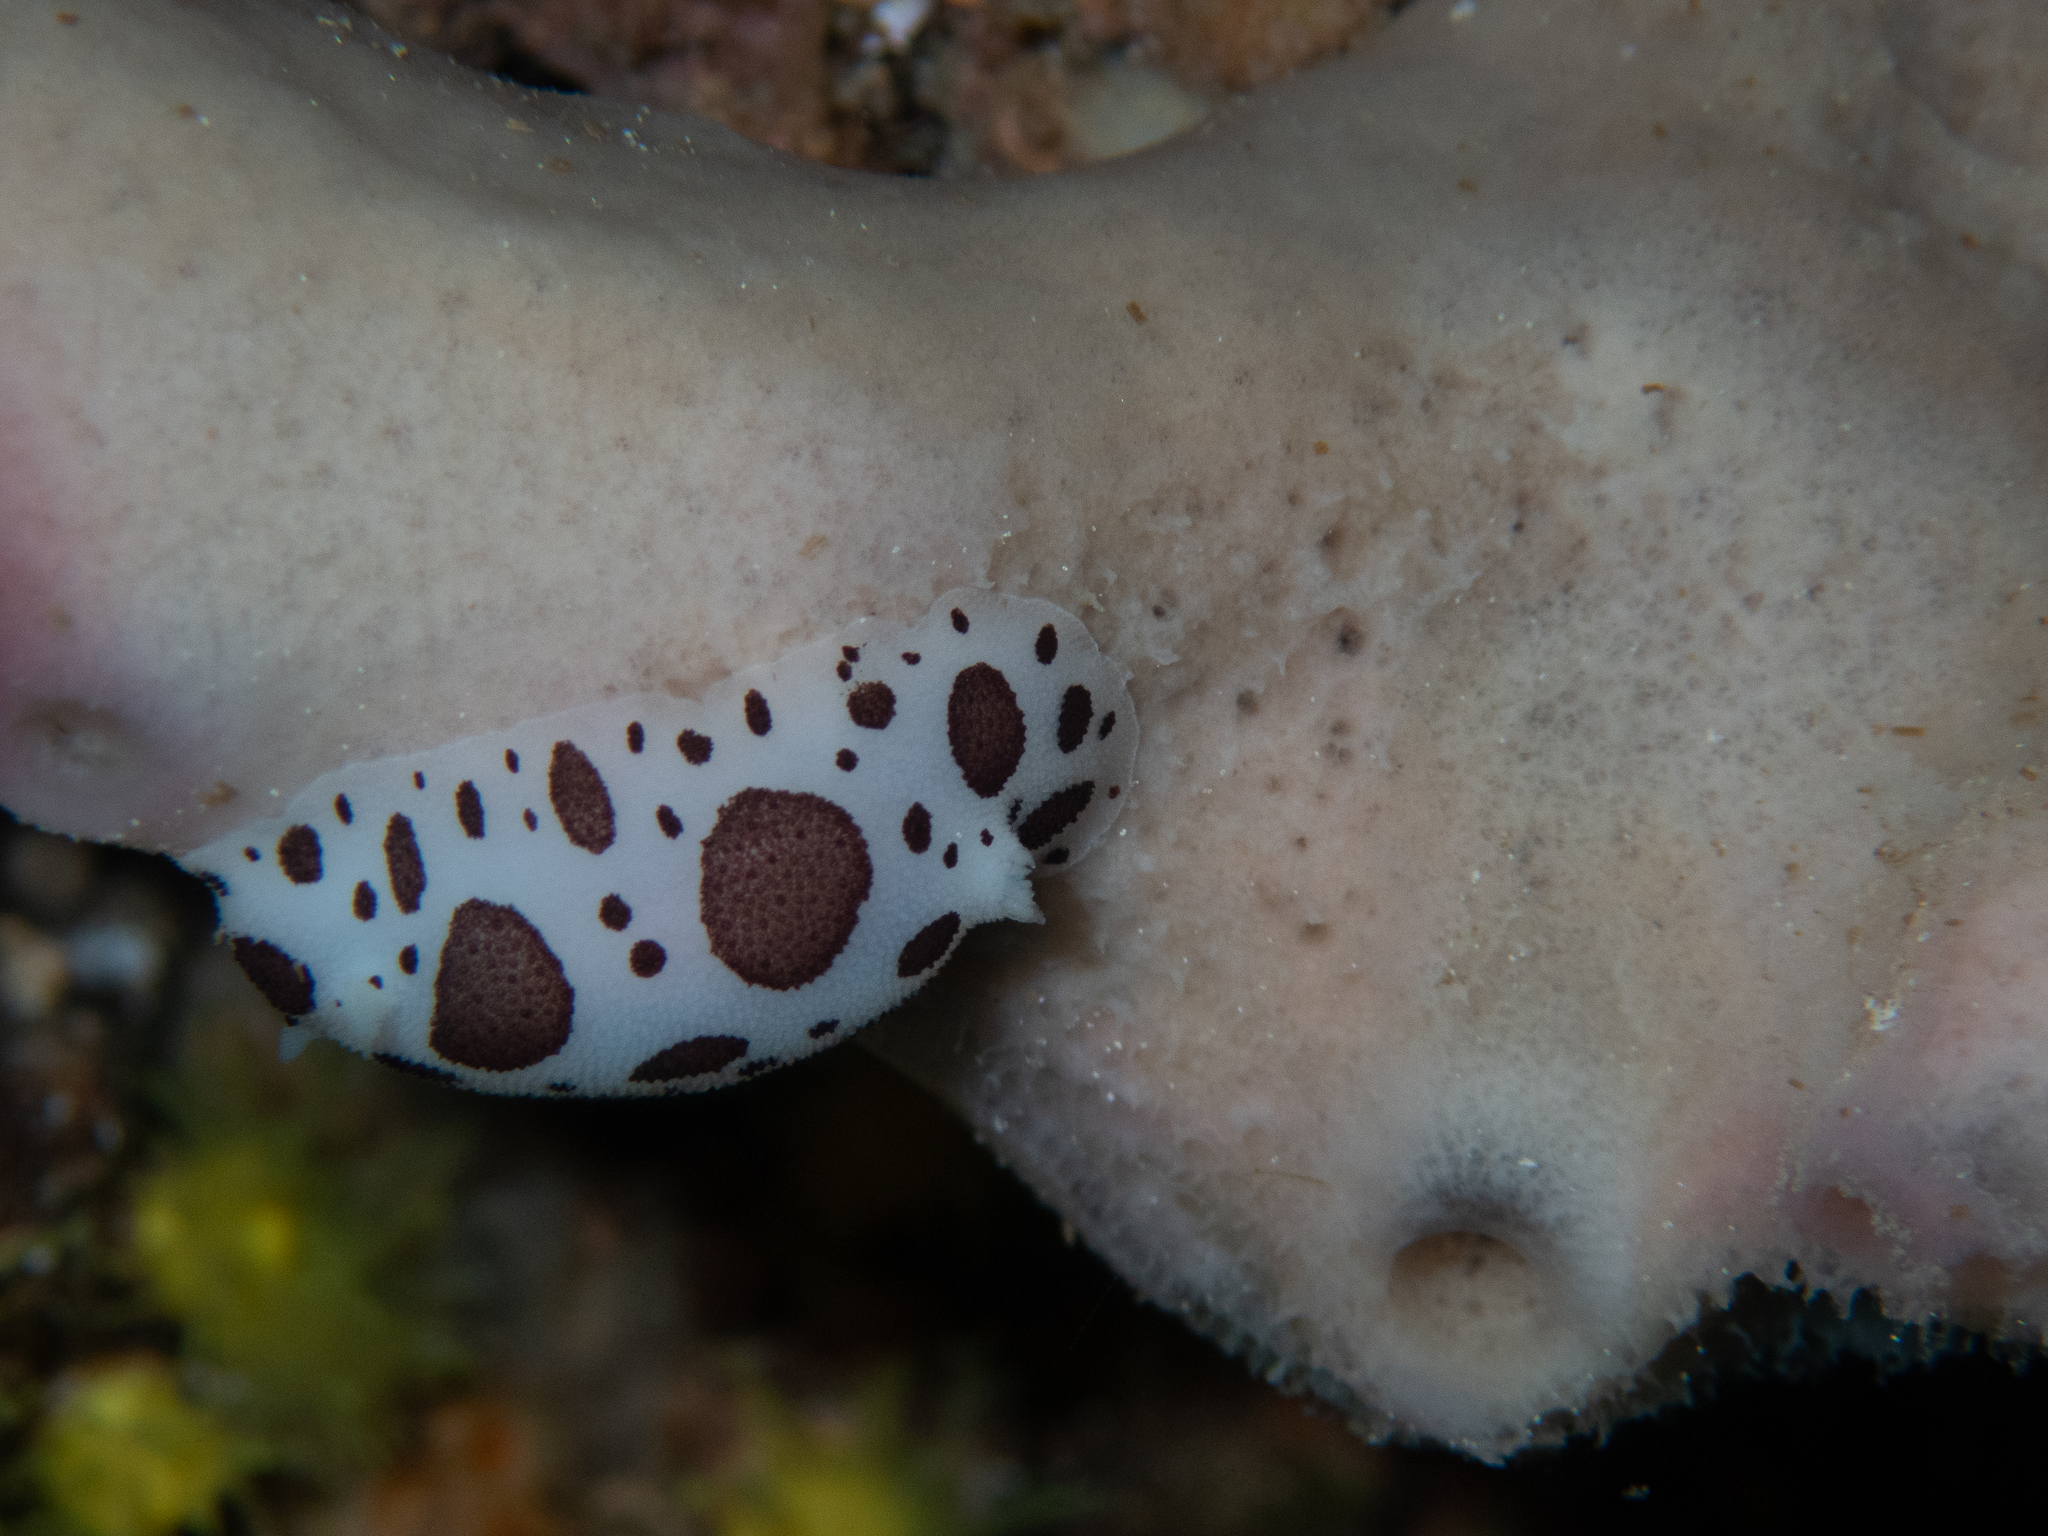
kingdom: Animalia
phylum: Mollusca
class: Gastropoda
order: Nudibranchia
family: Discodorididae
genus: Peltodoris
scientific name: Peltodoris atromaculata
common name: Swiss cow nudibranch
